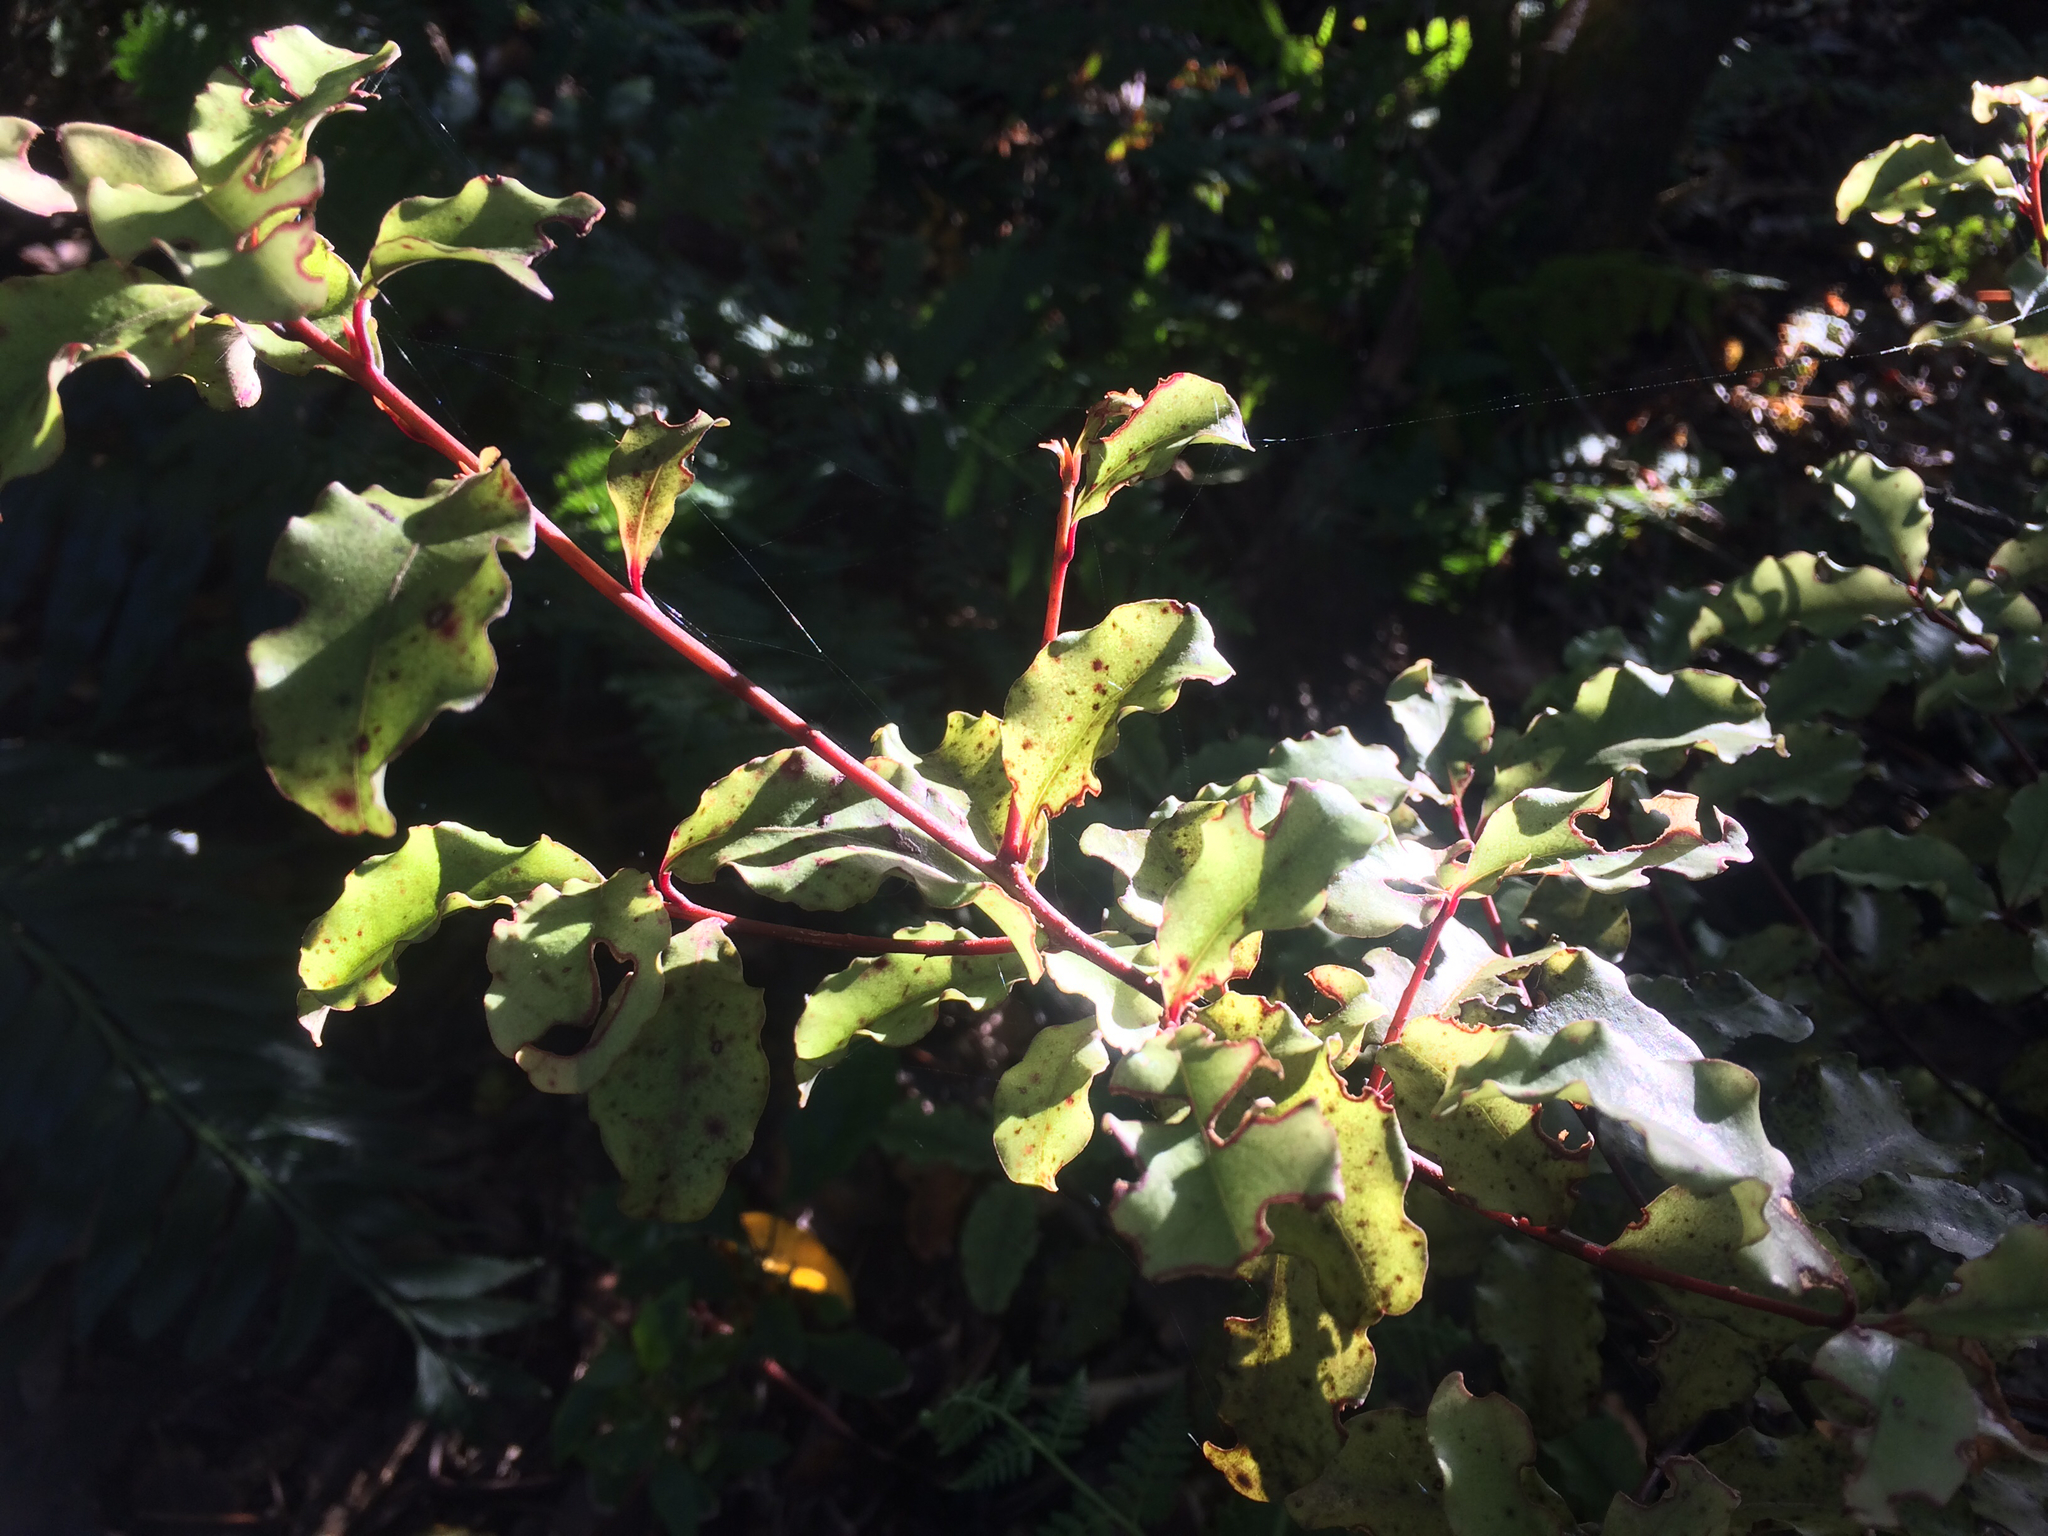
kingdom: Plantae
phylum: Tracheophyta
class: Magnoliopsida
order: Ericales
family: Primulaceae
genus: Myrsine
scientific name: Myrsine australis
